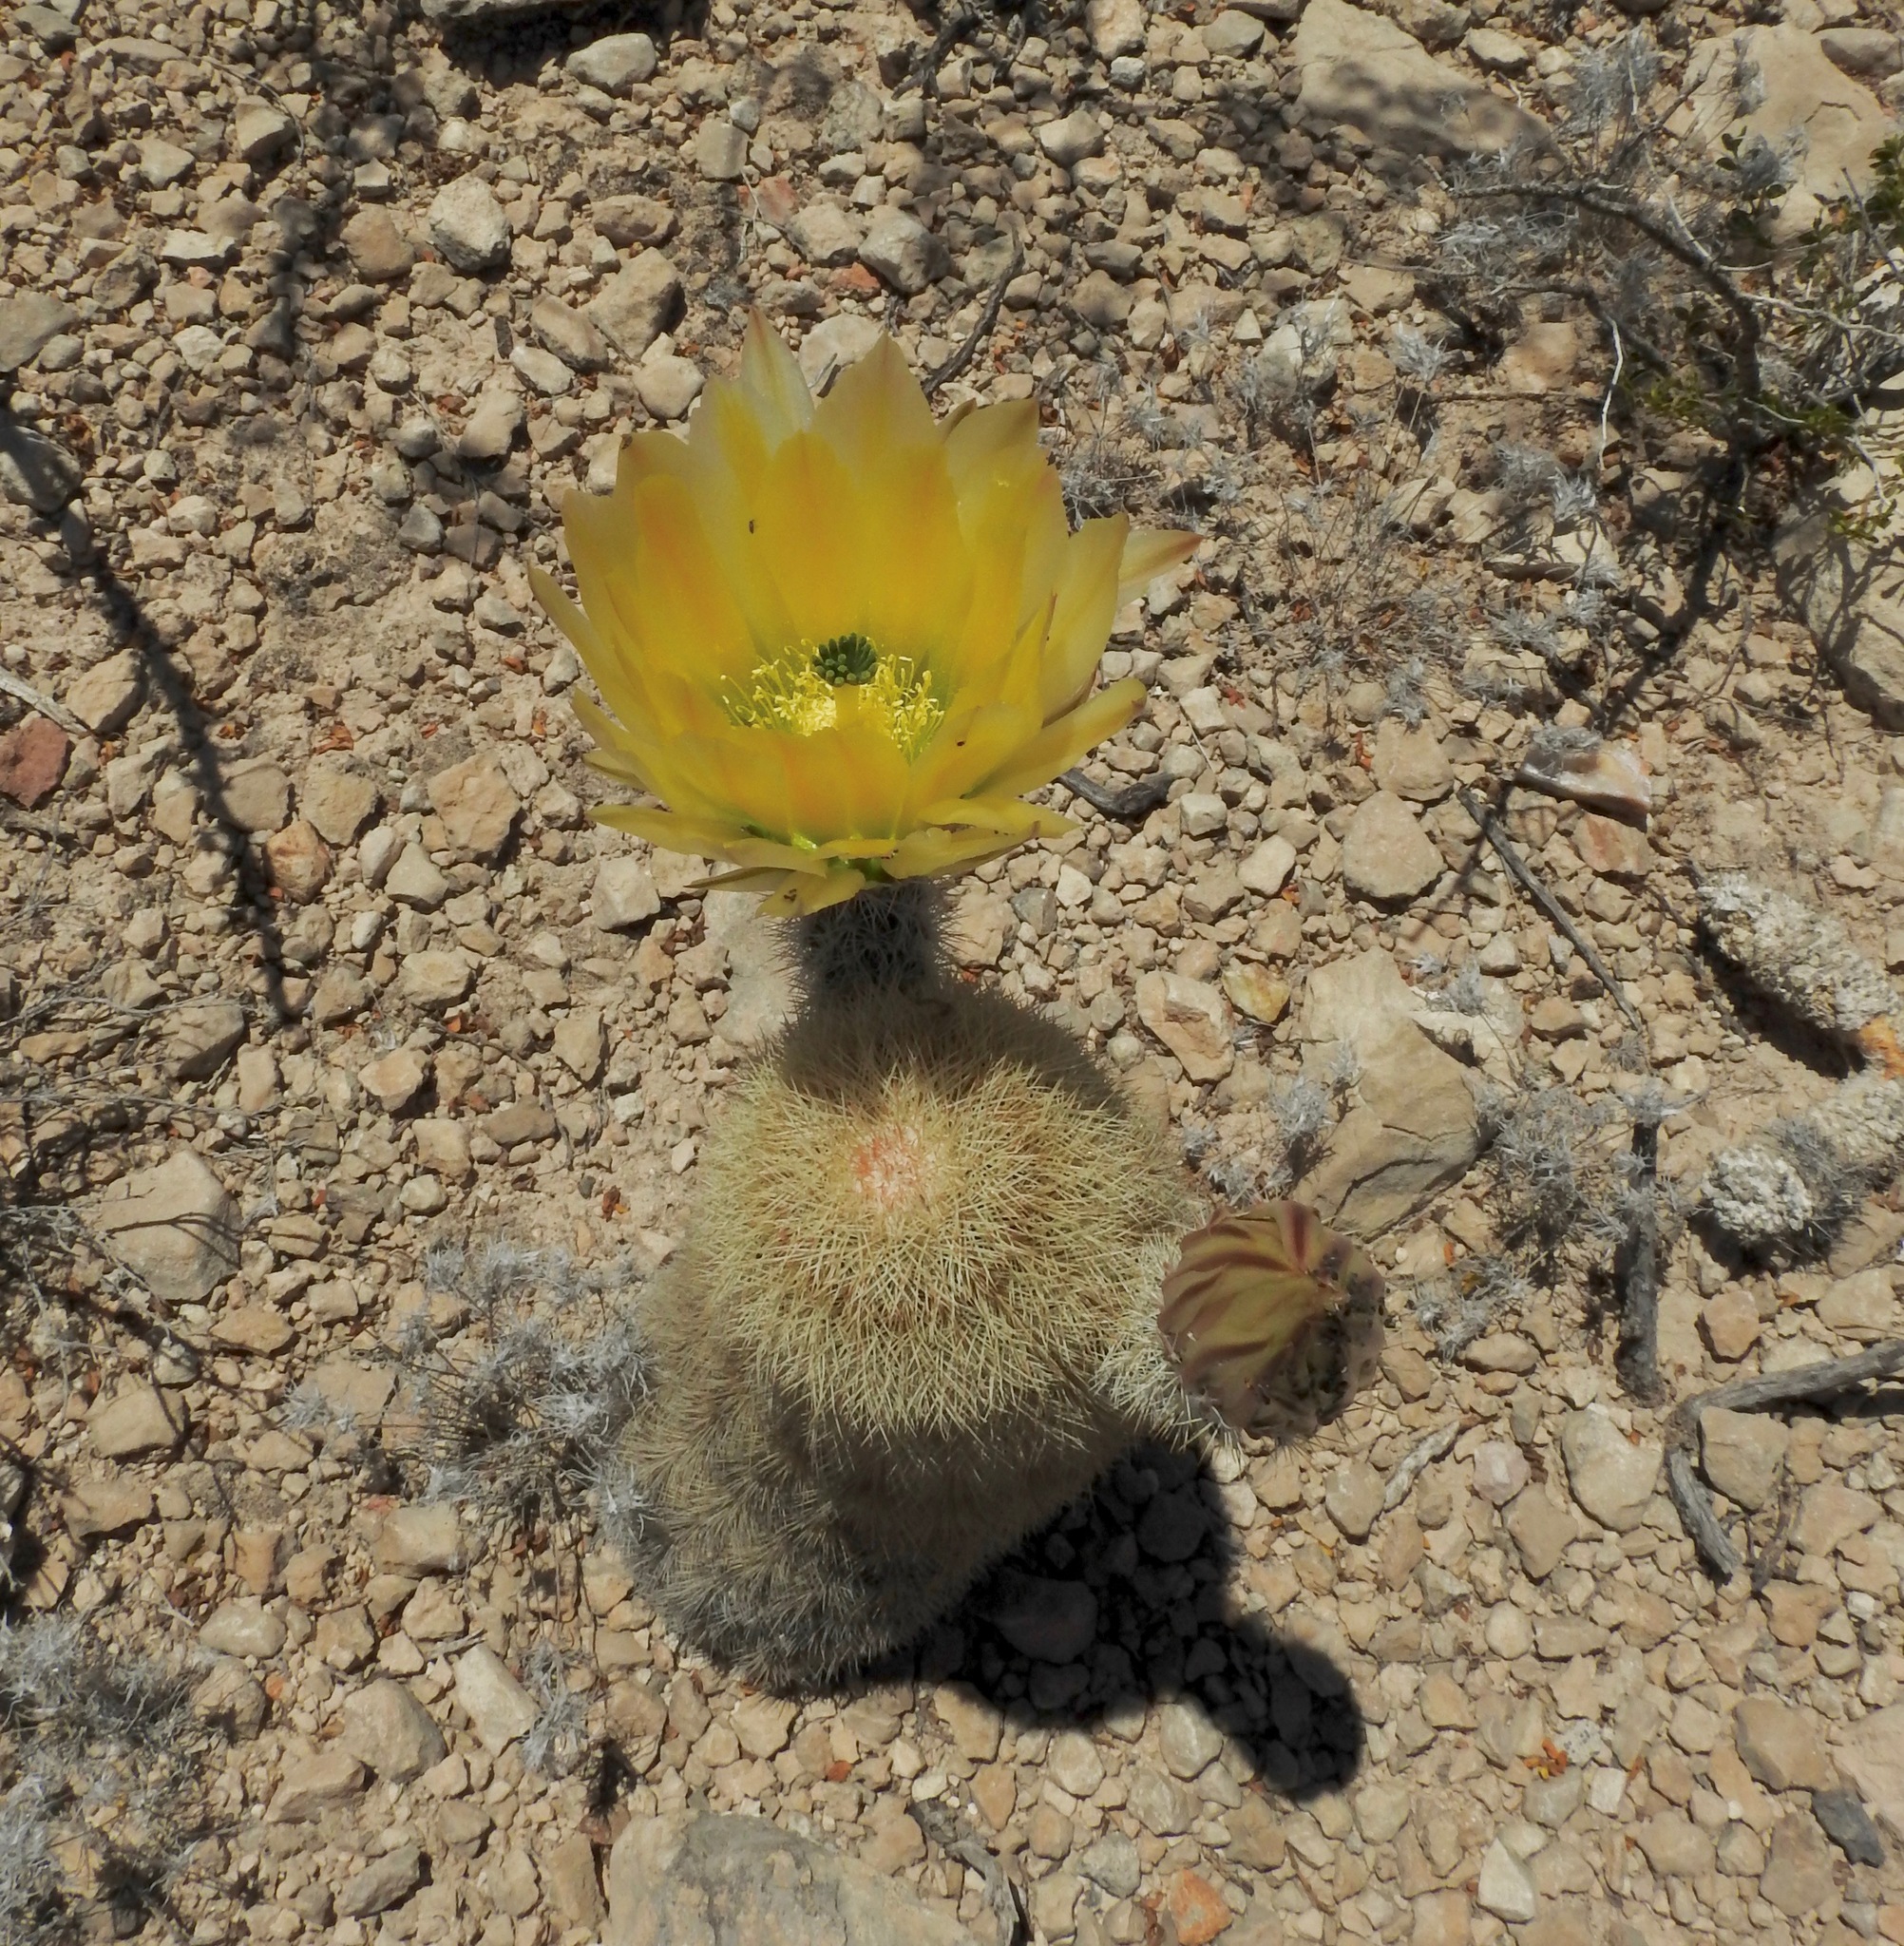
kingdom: Plantae
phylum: Tracheophyta
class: Magnoliopsida
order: Caryophyllales
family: Cactaceae
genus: Echinocereus
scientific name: Echinocereus dasyacanthus
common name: Spiny hedgehog cactus
